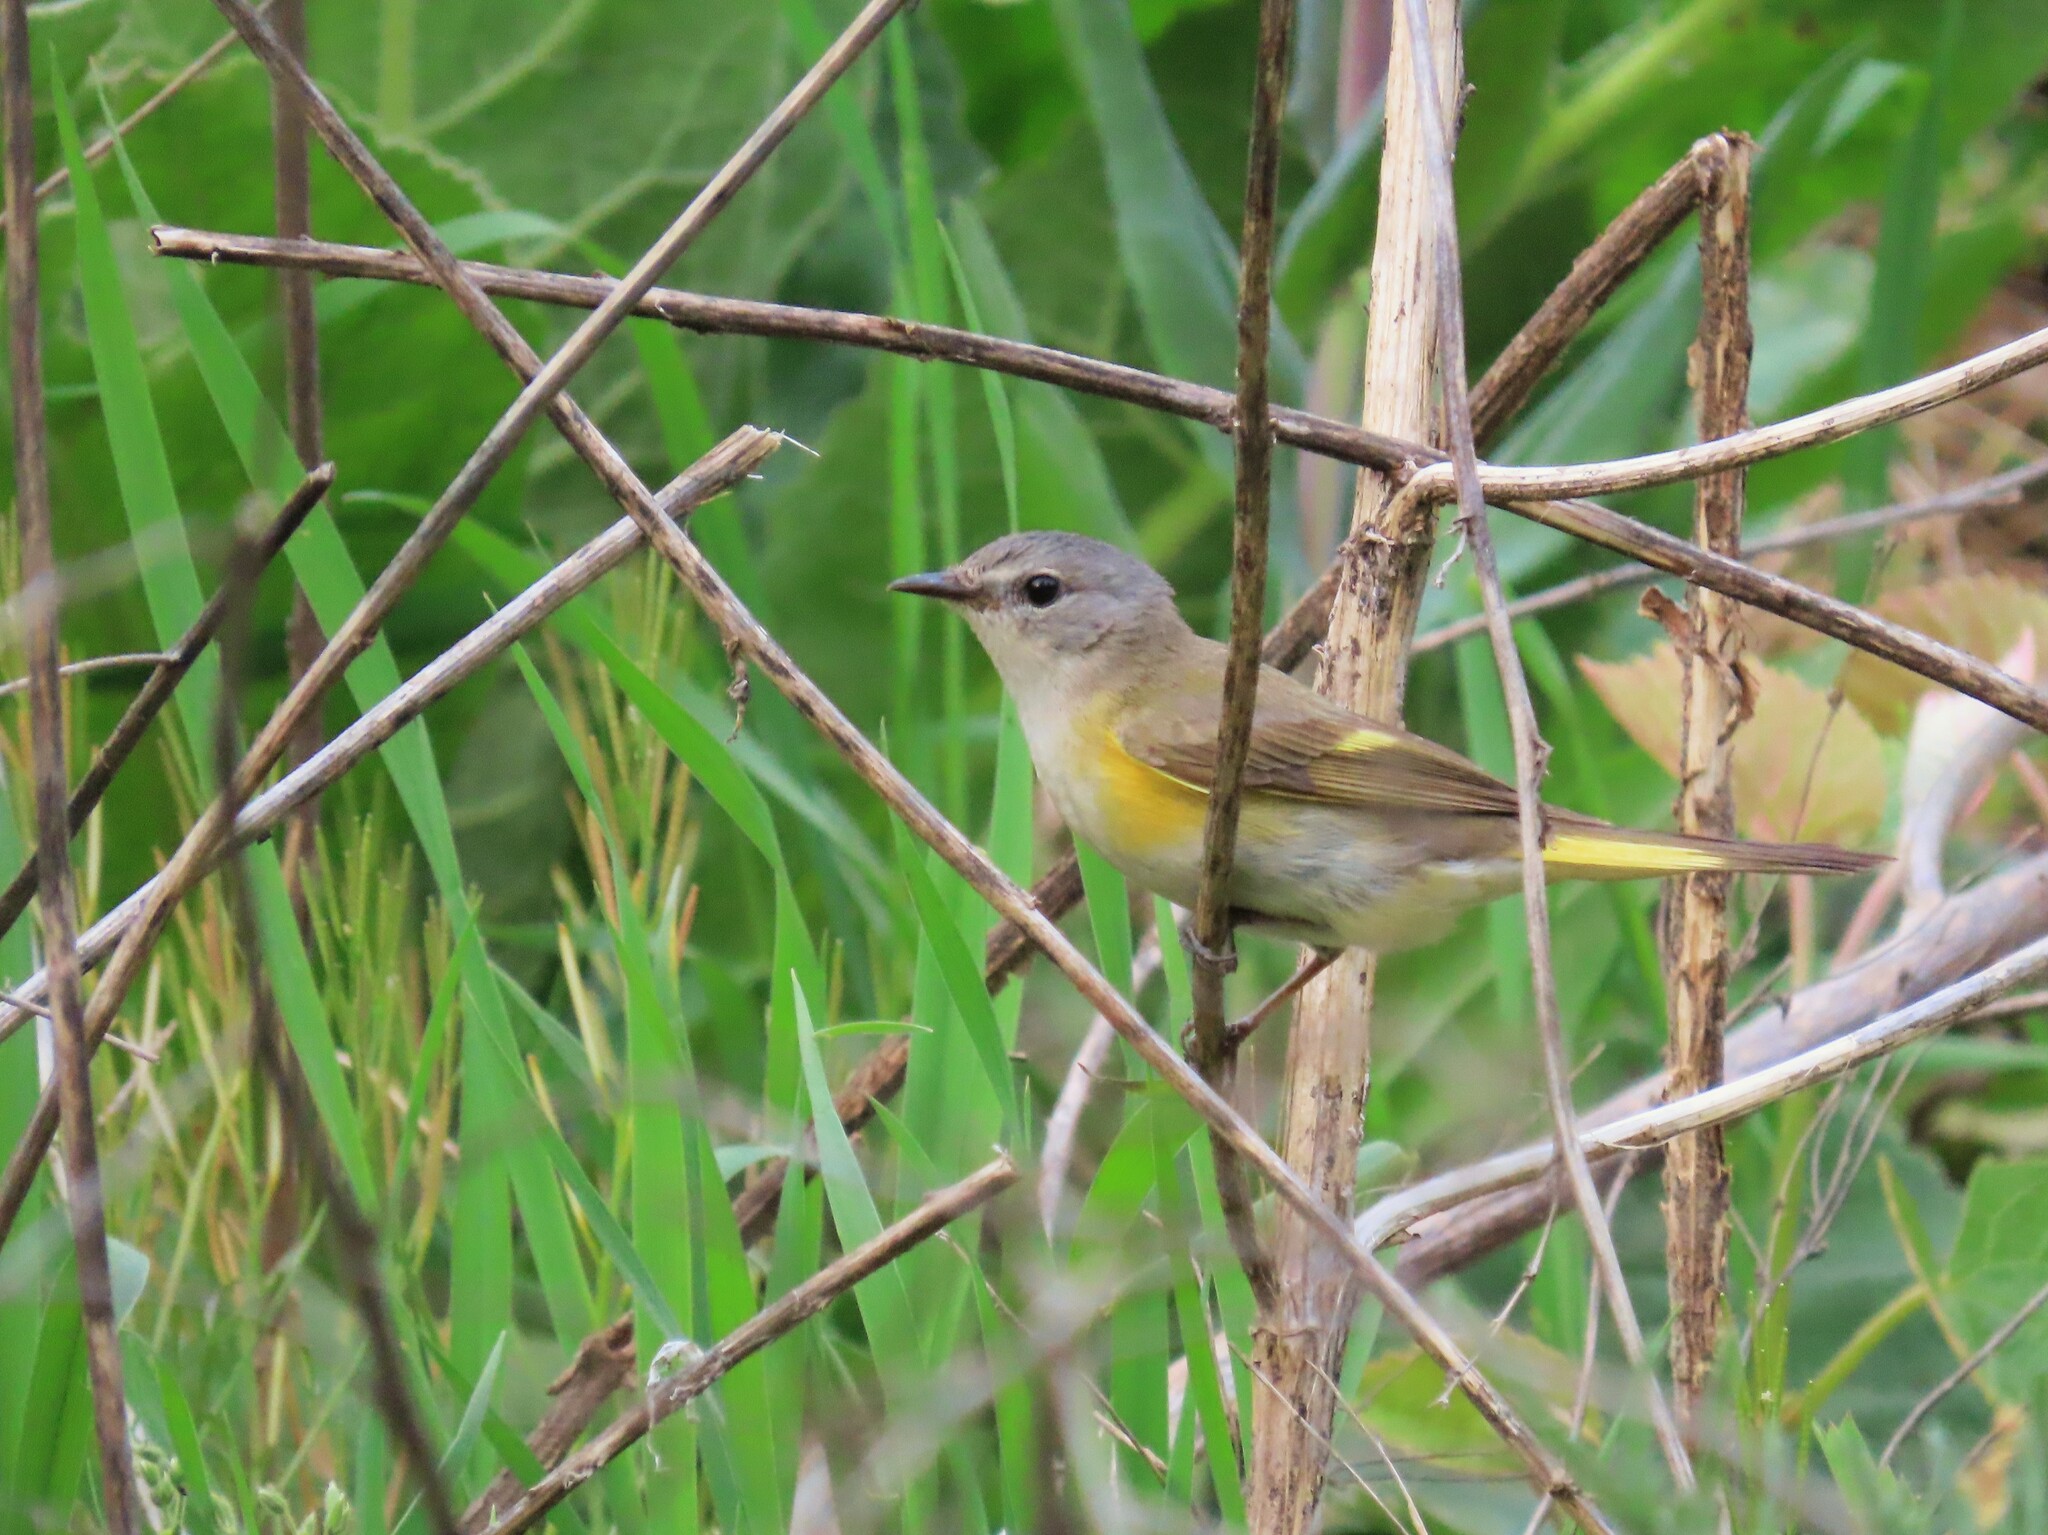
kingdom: Animalia
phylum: Chordata
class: Aves
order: Passeriformes
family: Parulidae
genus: Setophaga
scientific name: Setophaga ruticilla
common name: American redstart
